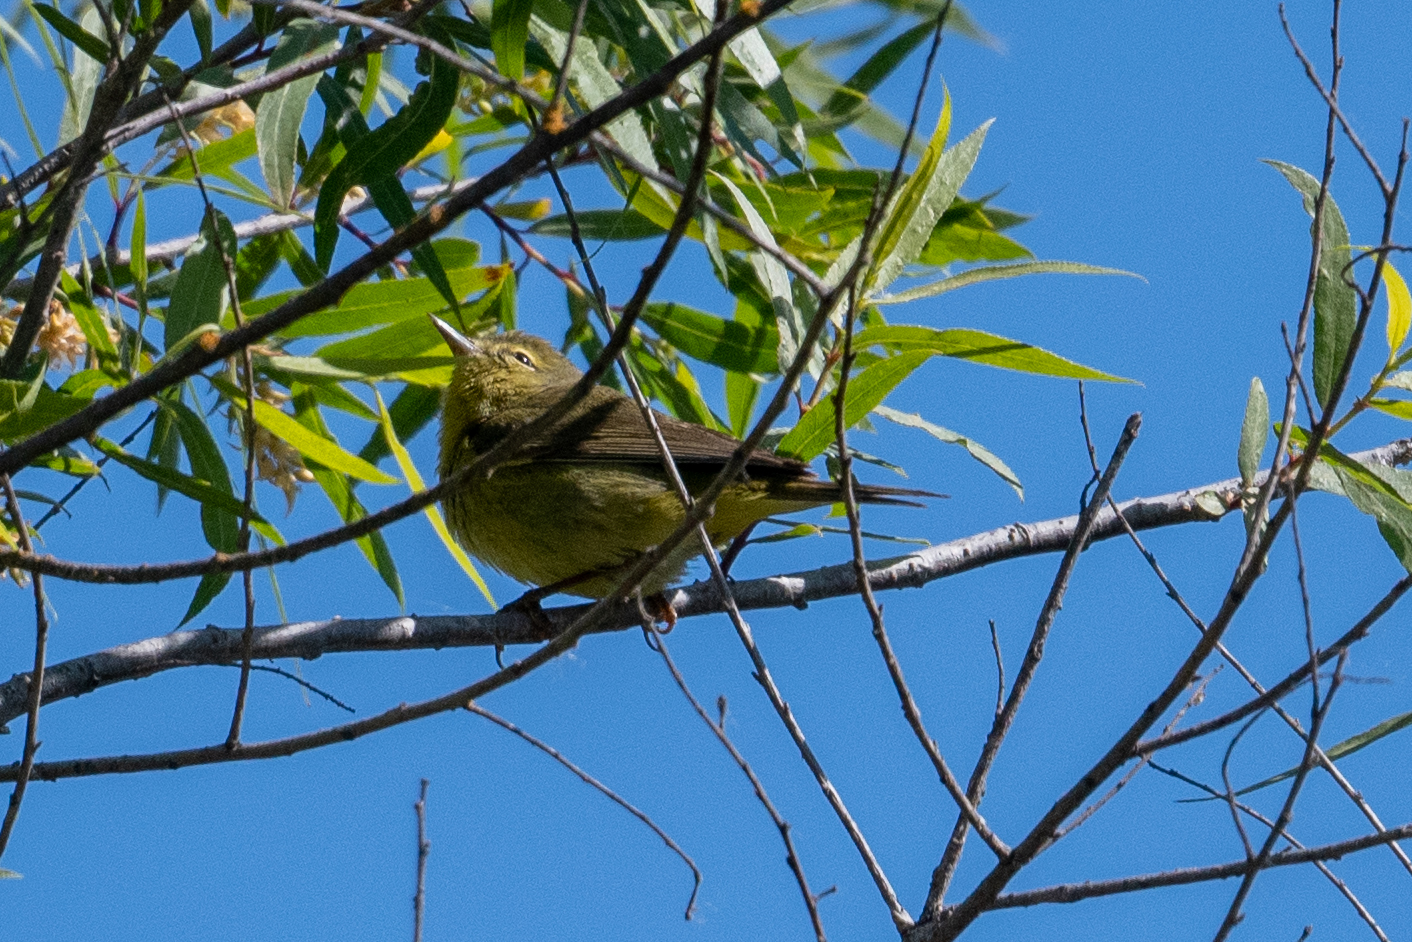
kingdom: Animalia
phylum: Chordata
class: Aves
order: Passeriformes
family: Parulidae
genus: Leiothlypis
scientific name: Leiothlypis celata
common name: Orange-crowned warbler
